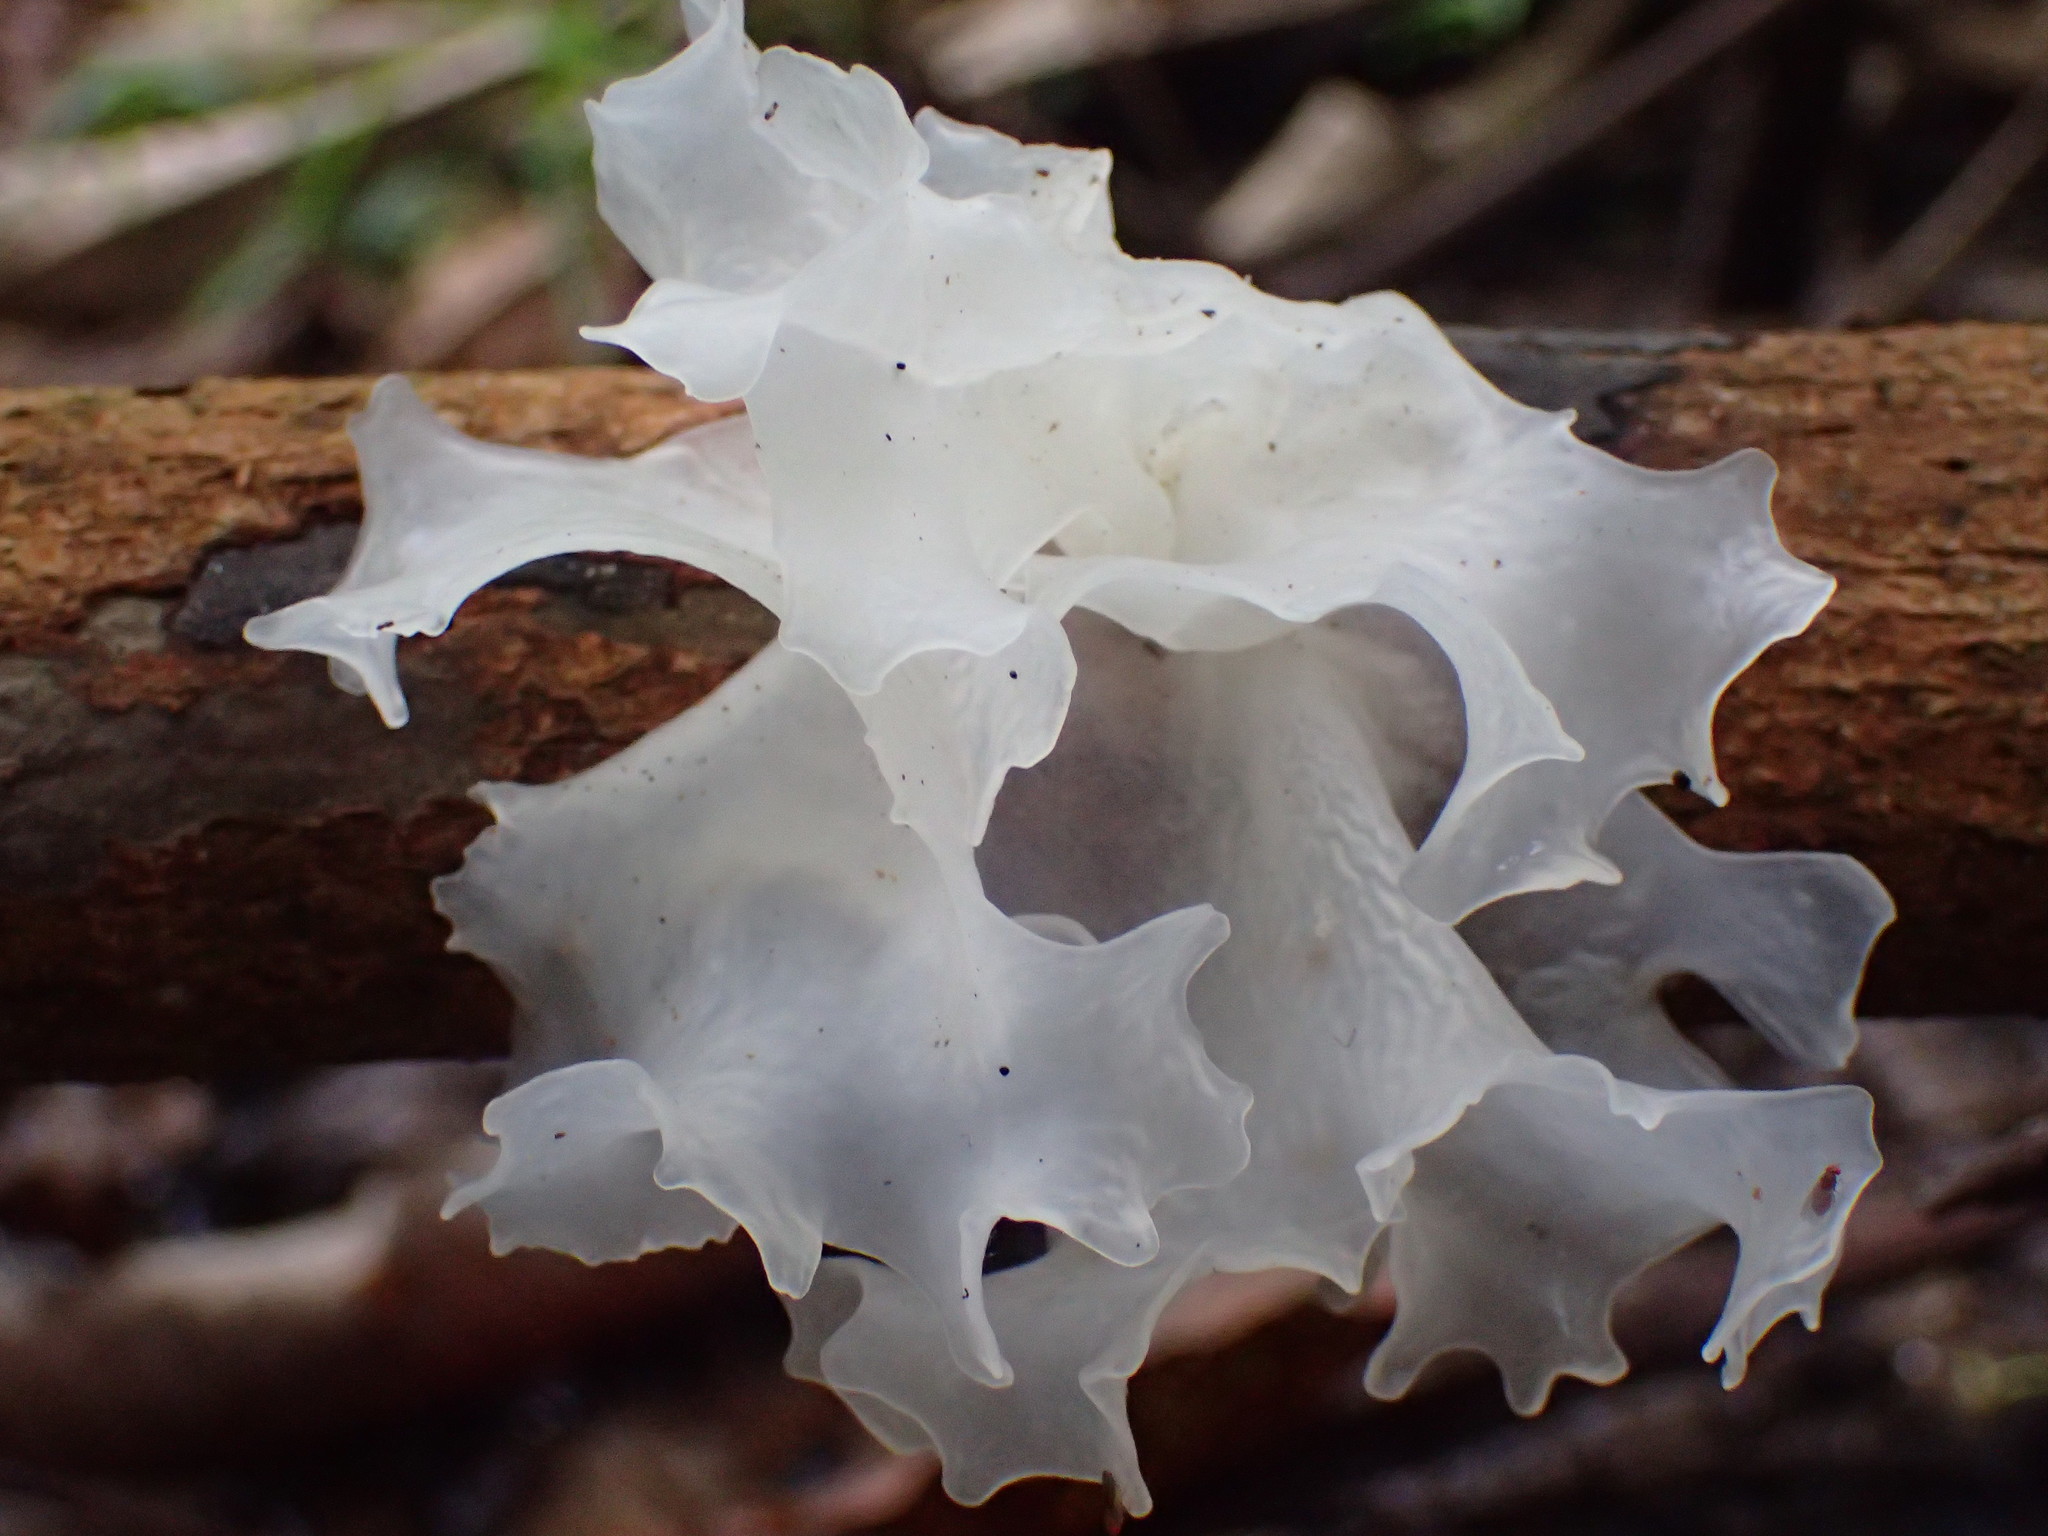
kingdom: Fungi
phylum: Basidiomycota
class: Tremellomycetes
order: Tremellales
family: Tremellaceae
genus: Tremella
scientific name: Tremella fuciformis
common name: Snow fungus
